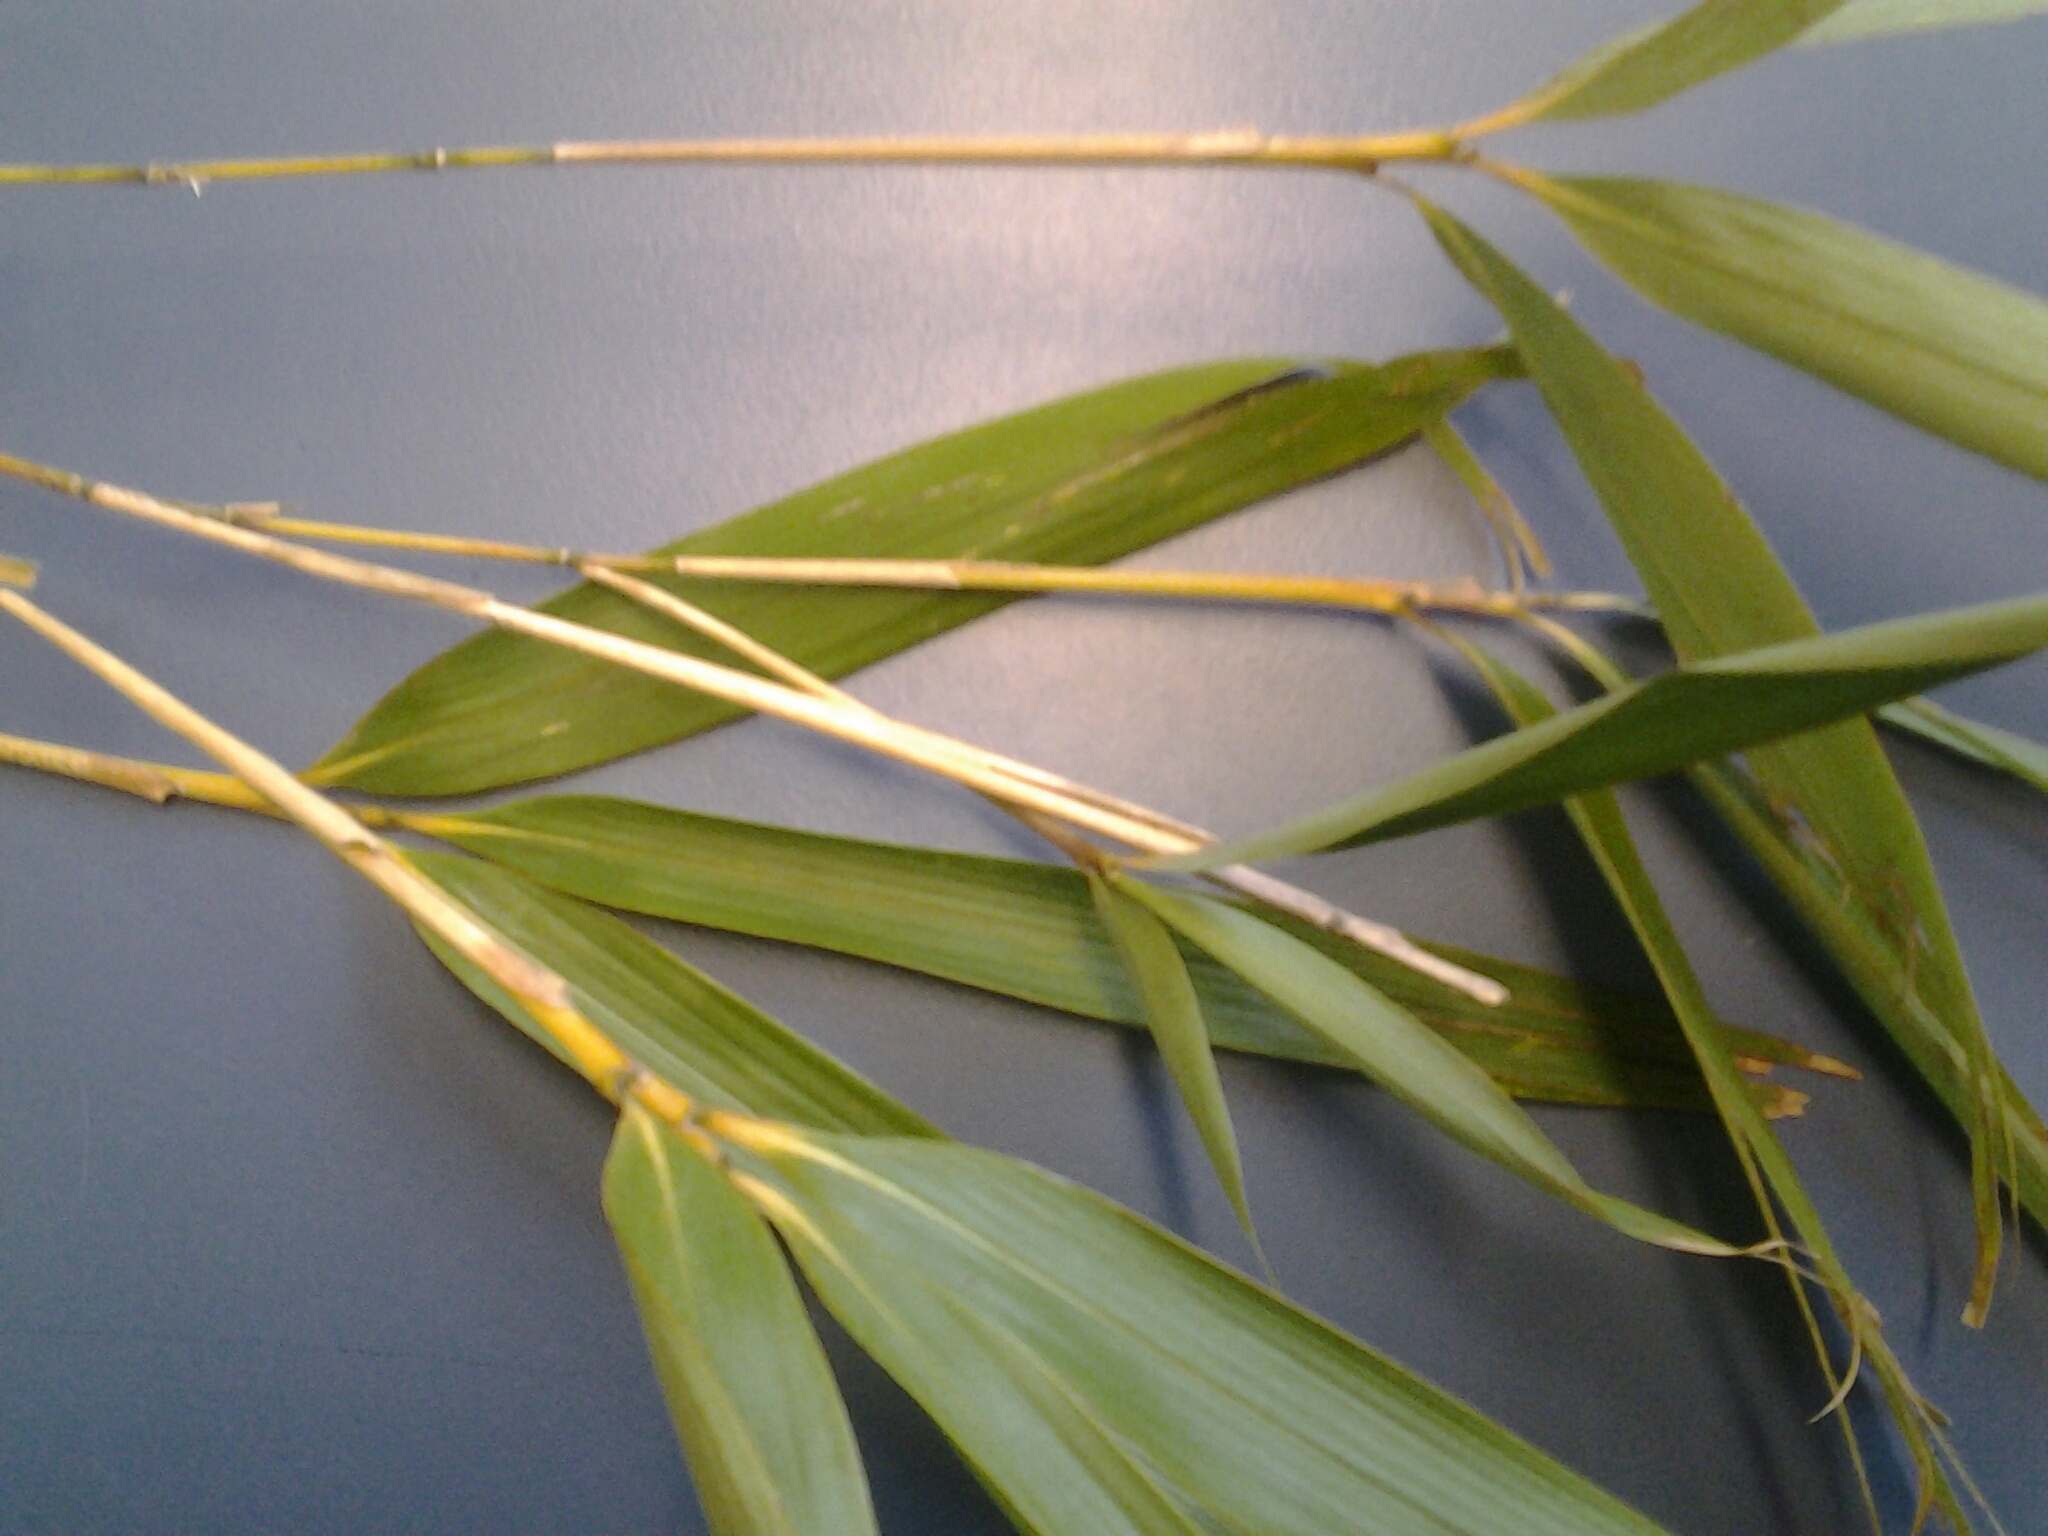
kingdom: Plantae
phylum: Tracheophyta
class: Liliopsida
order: Poales
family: Poaceae
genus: Pseudosasa
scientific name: Pseudosasa japonica
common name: Arrow bamboo
